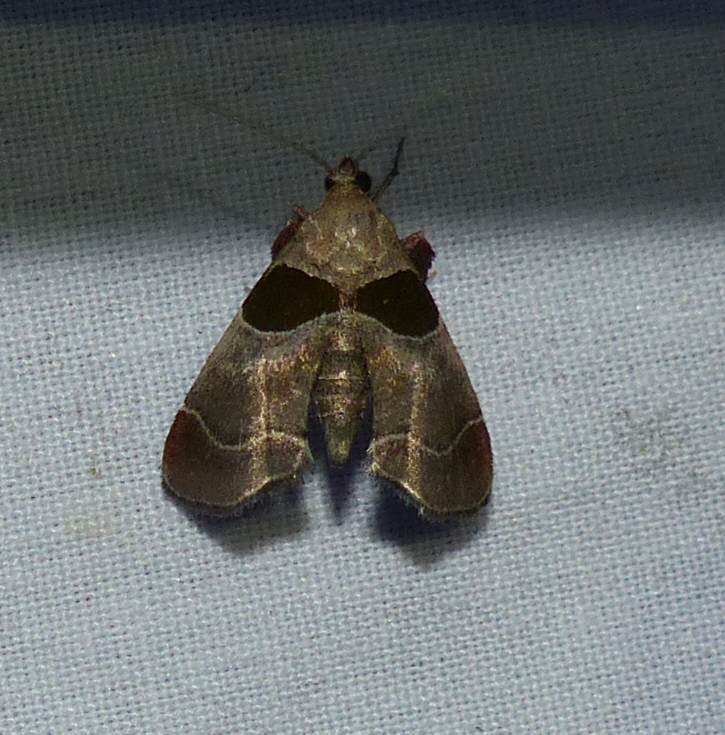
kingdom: Animalia
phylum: Arthropoda
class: Insecta
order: Lepidoptera
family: Pyralidae
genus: Tosale
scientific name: Tosale oviplagalis
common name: Dimorphic tosale moth
